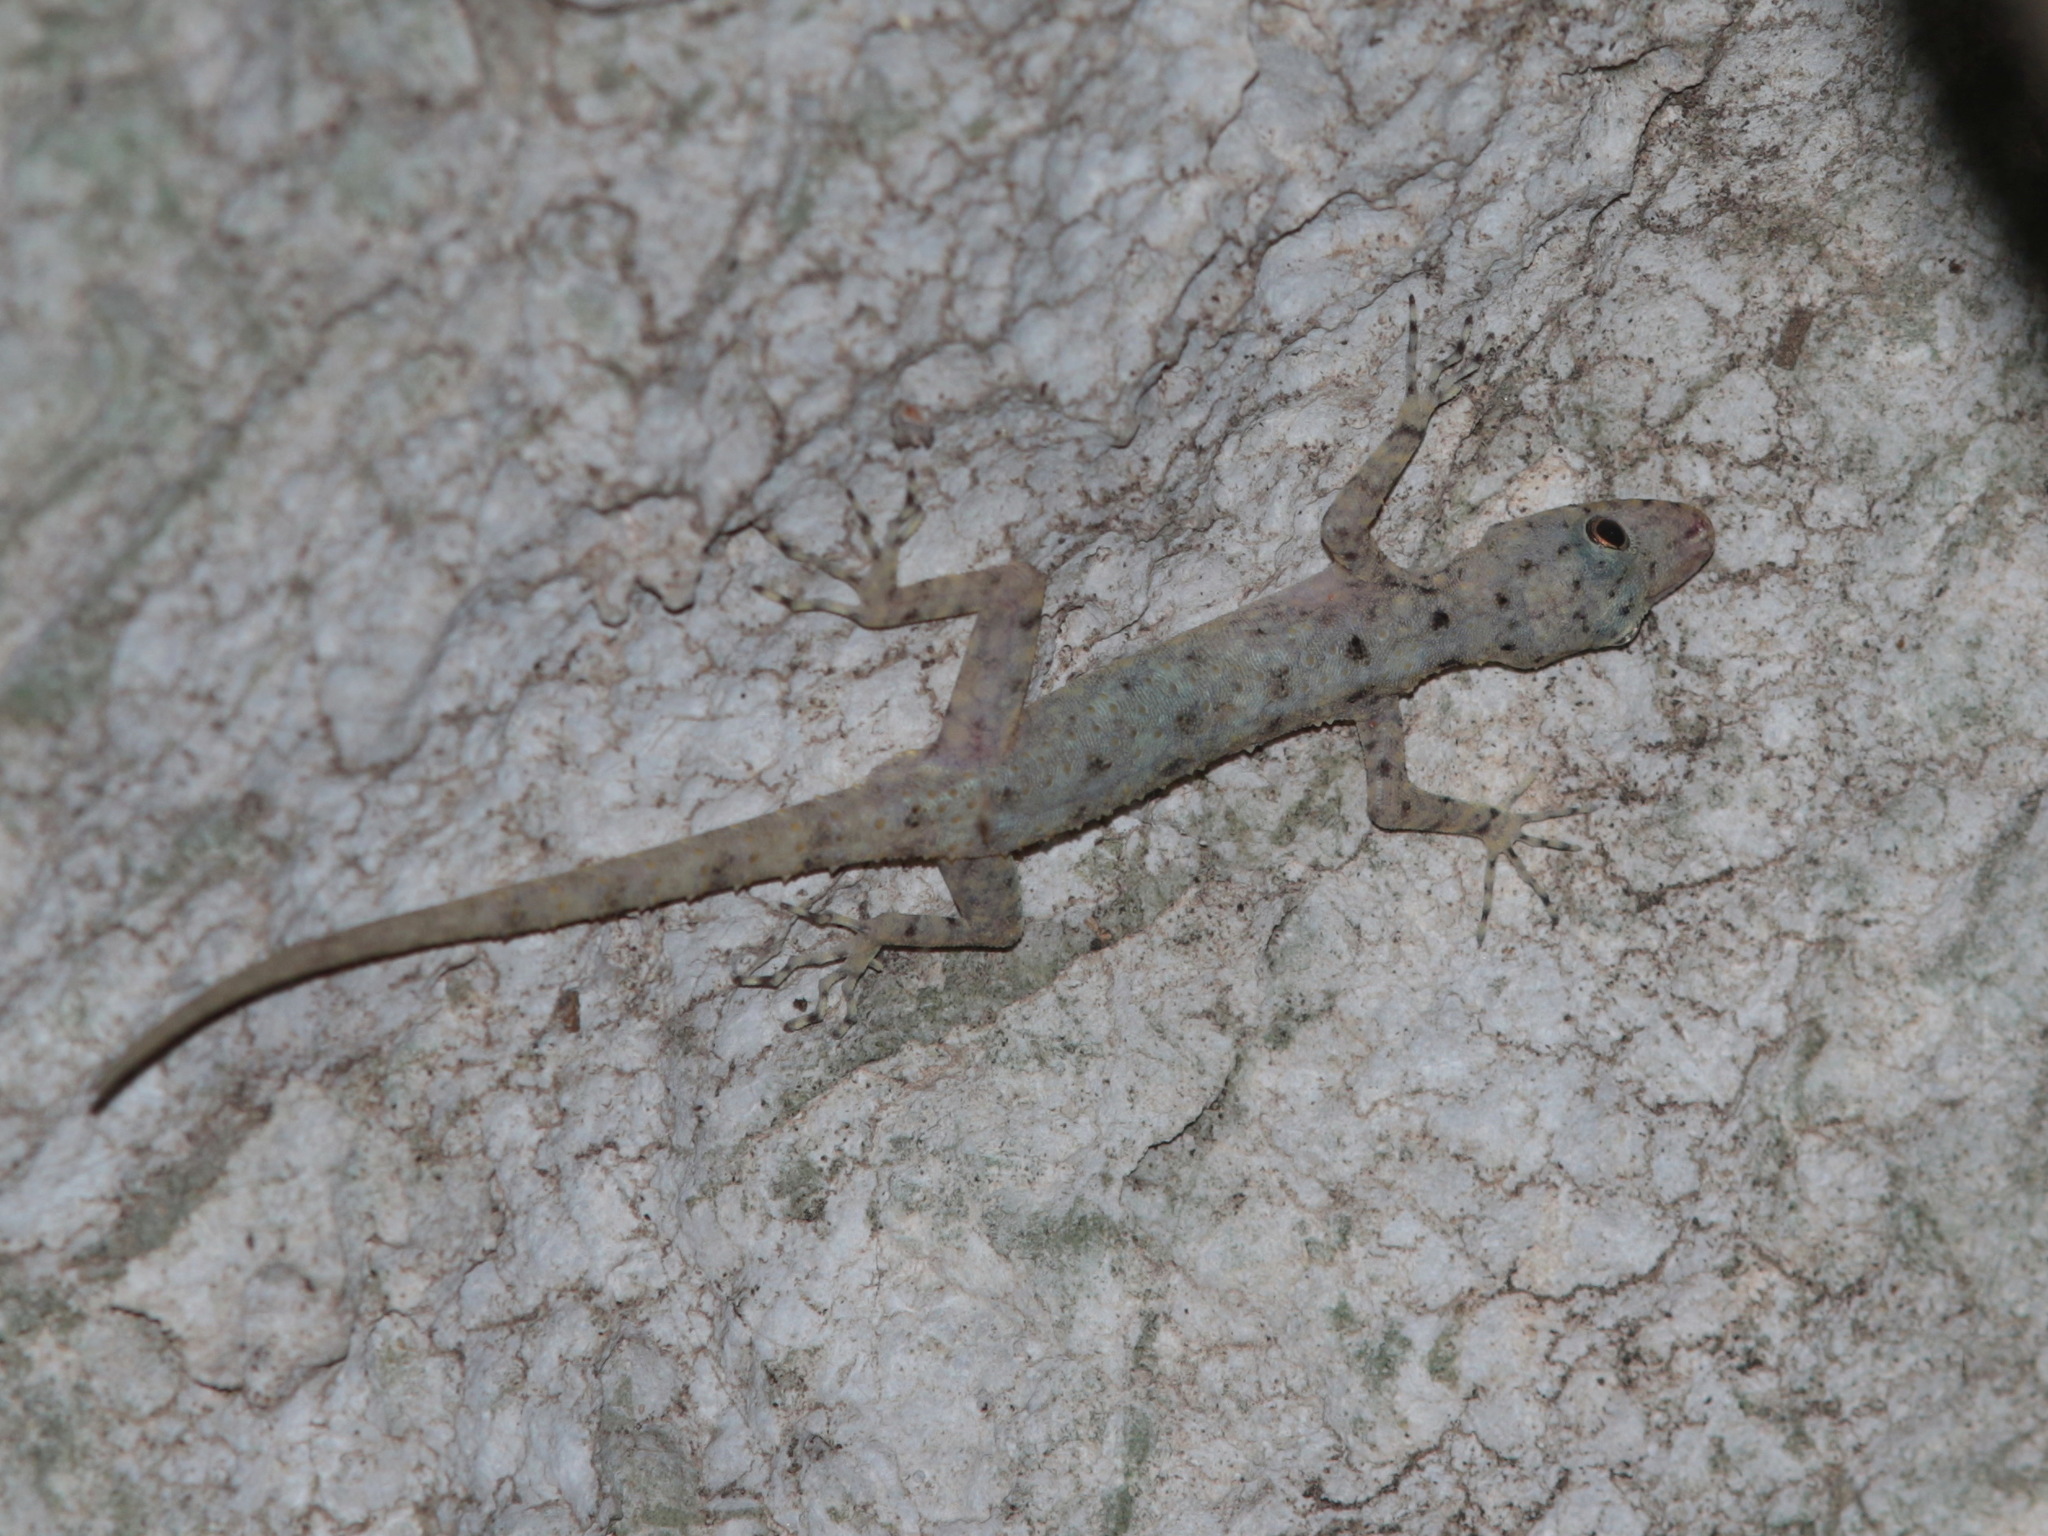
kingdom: Animalia
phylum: Chordata
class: Squamata
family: Gekkonidae
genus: Cnemaspis
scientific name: Cnemaspis lineogularis
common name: Striped throated rock gecko
